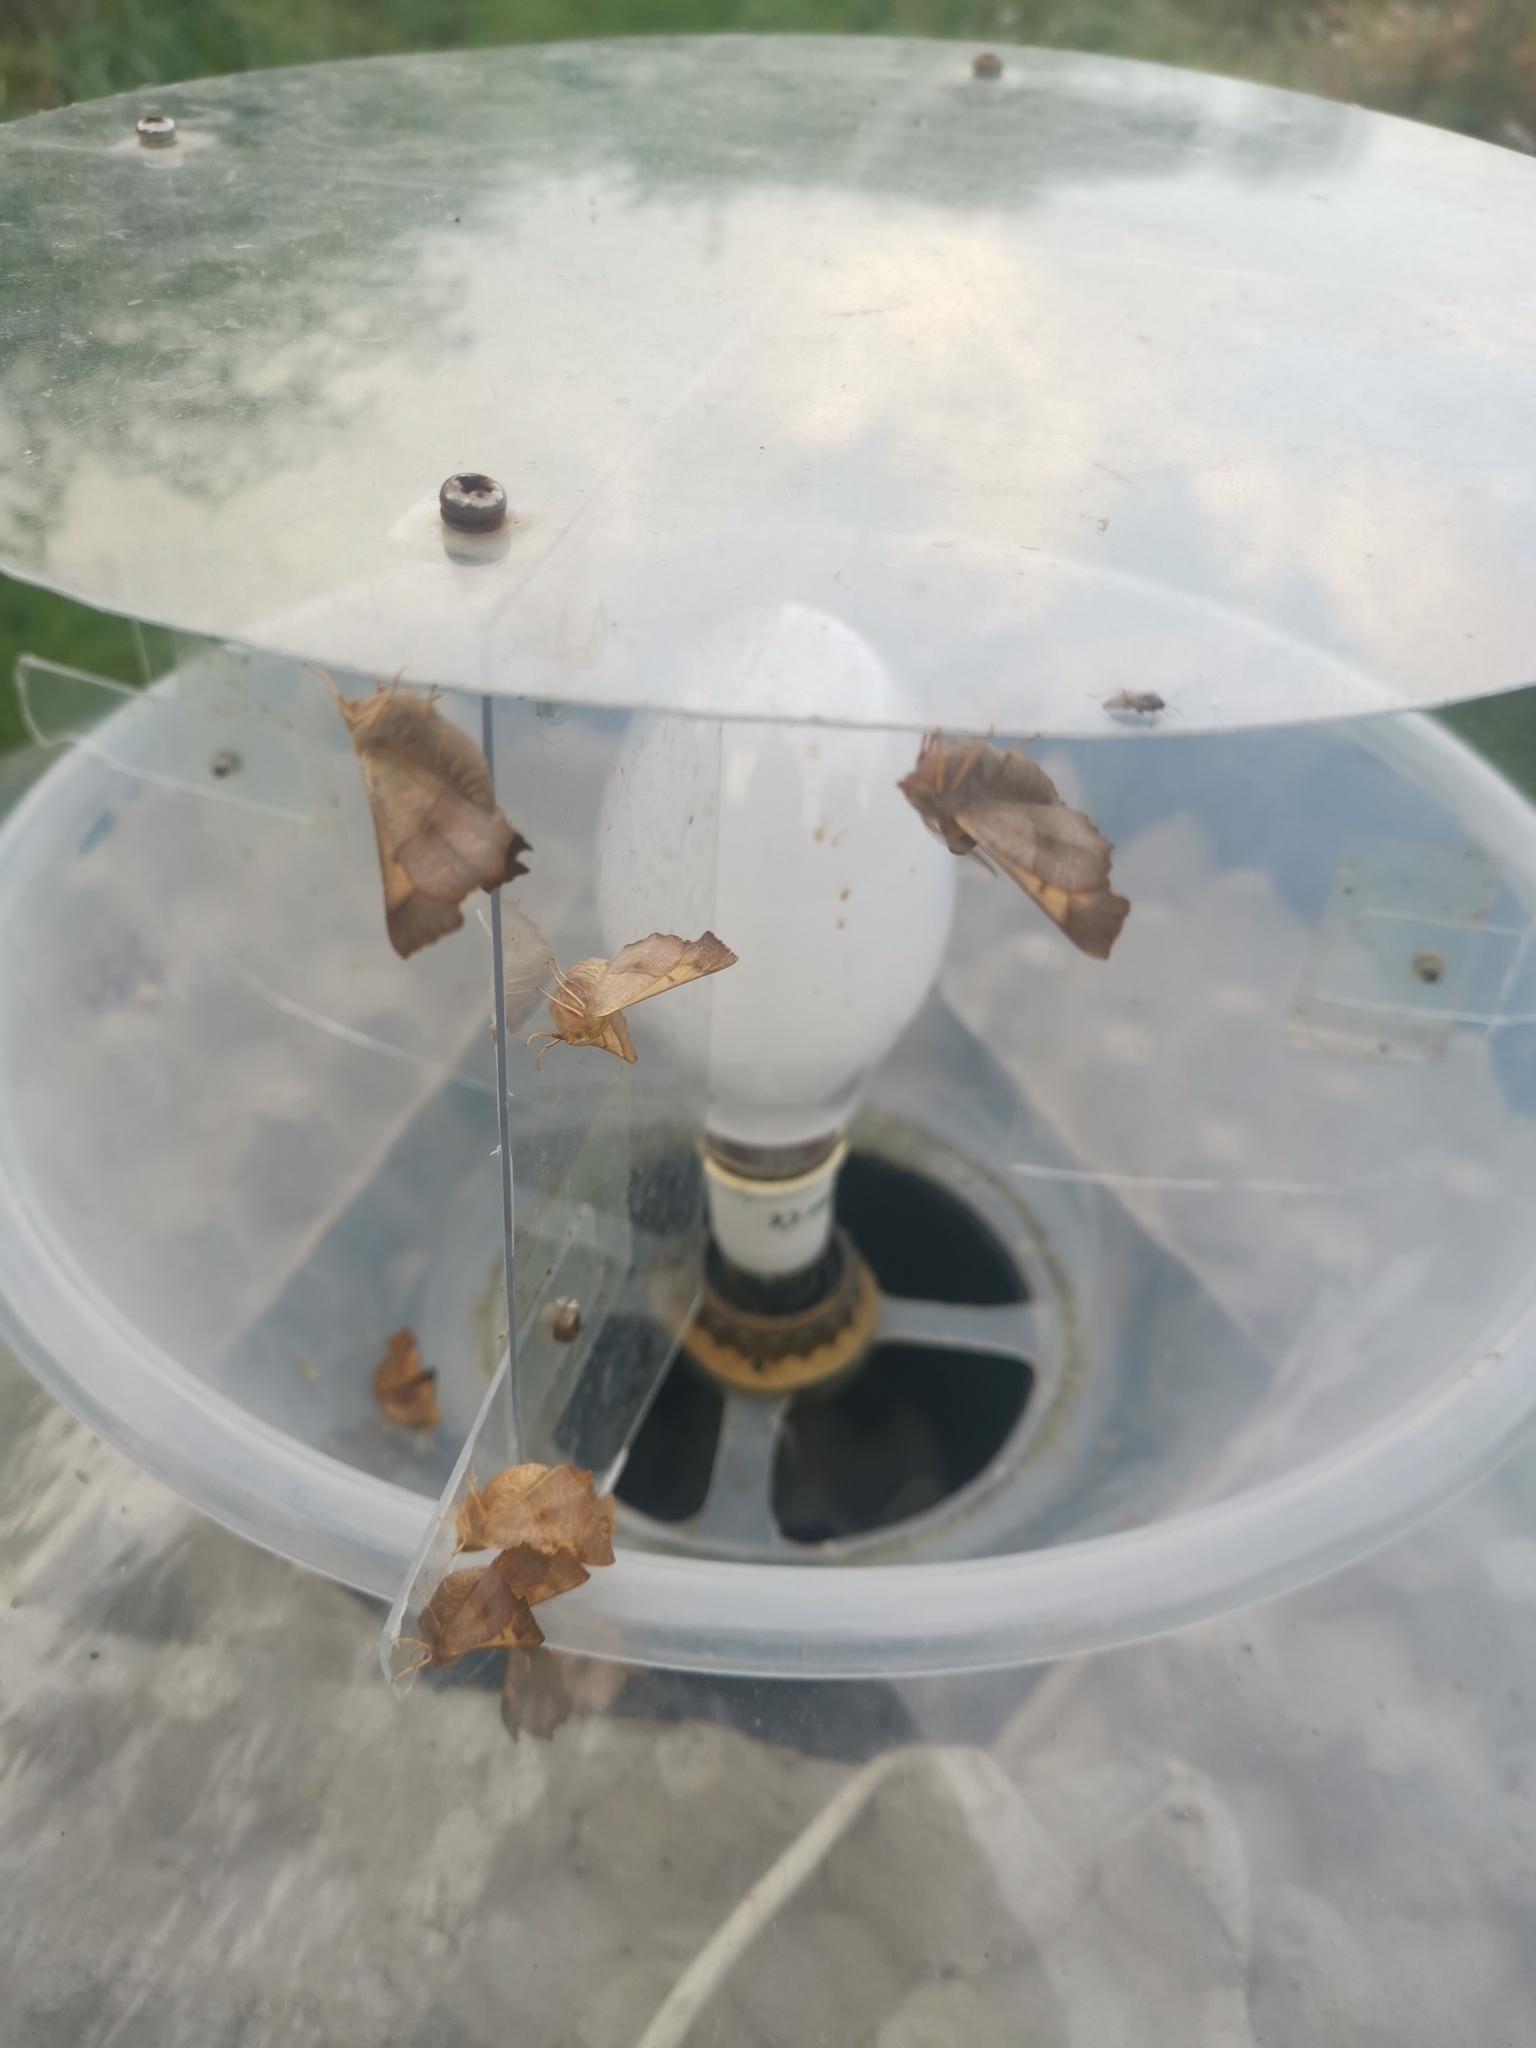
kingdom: Animalia
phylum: Arthropoda
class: Insecta
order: Lepidoptera
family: Geometridae
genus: Ennomos
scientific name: Ennomos fuscantaria
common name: Dusky thorn
